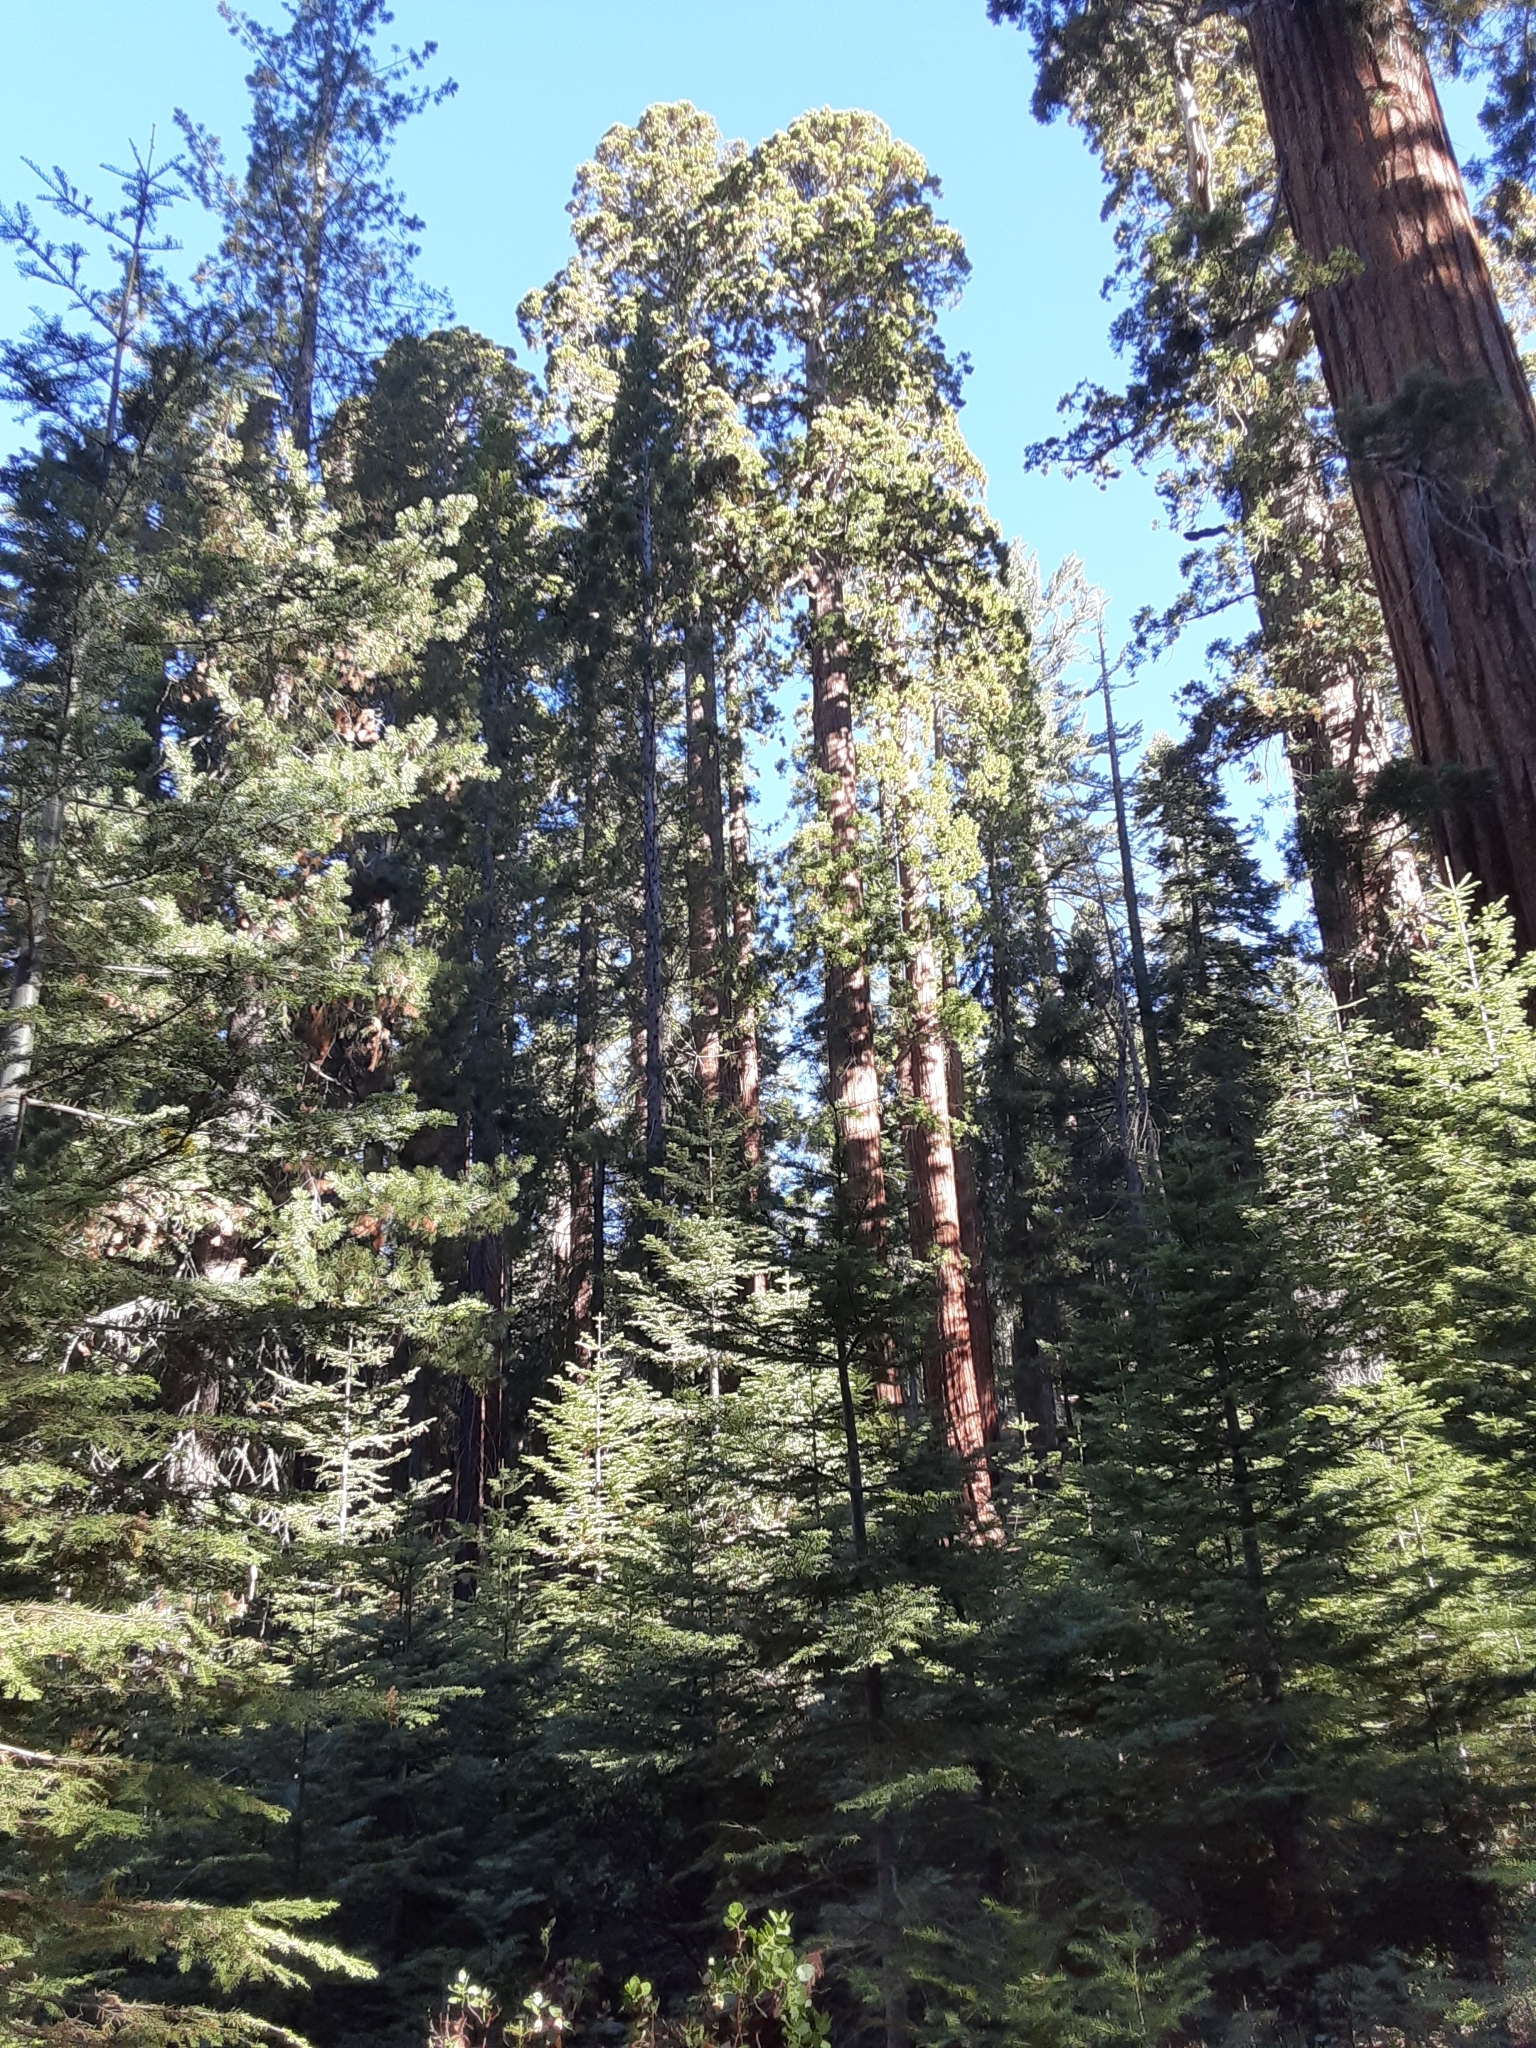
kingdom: Plantae
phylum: Tracheophyta
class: Pinopsida
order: Pinales
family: Cupressaceae
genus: Sequoiadendron
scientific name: Sequoiadendron giganteum
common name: Wellingtonia
